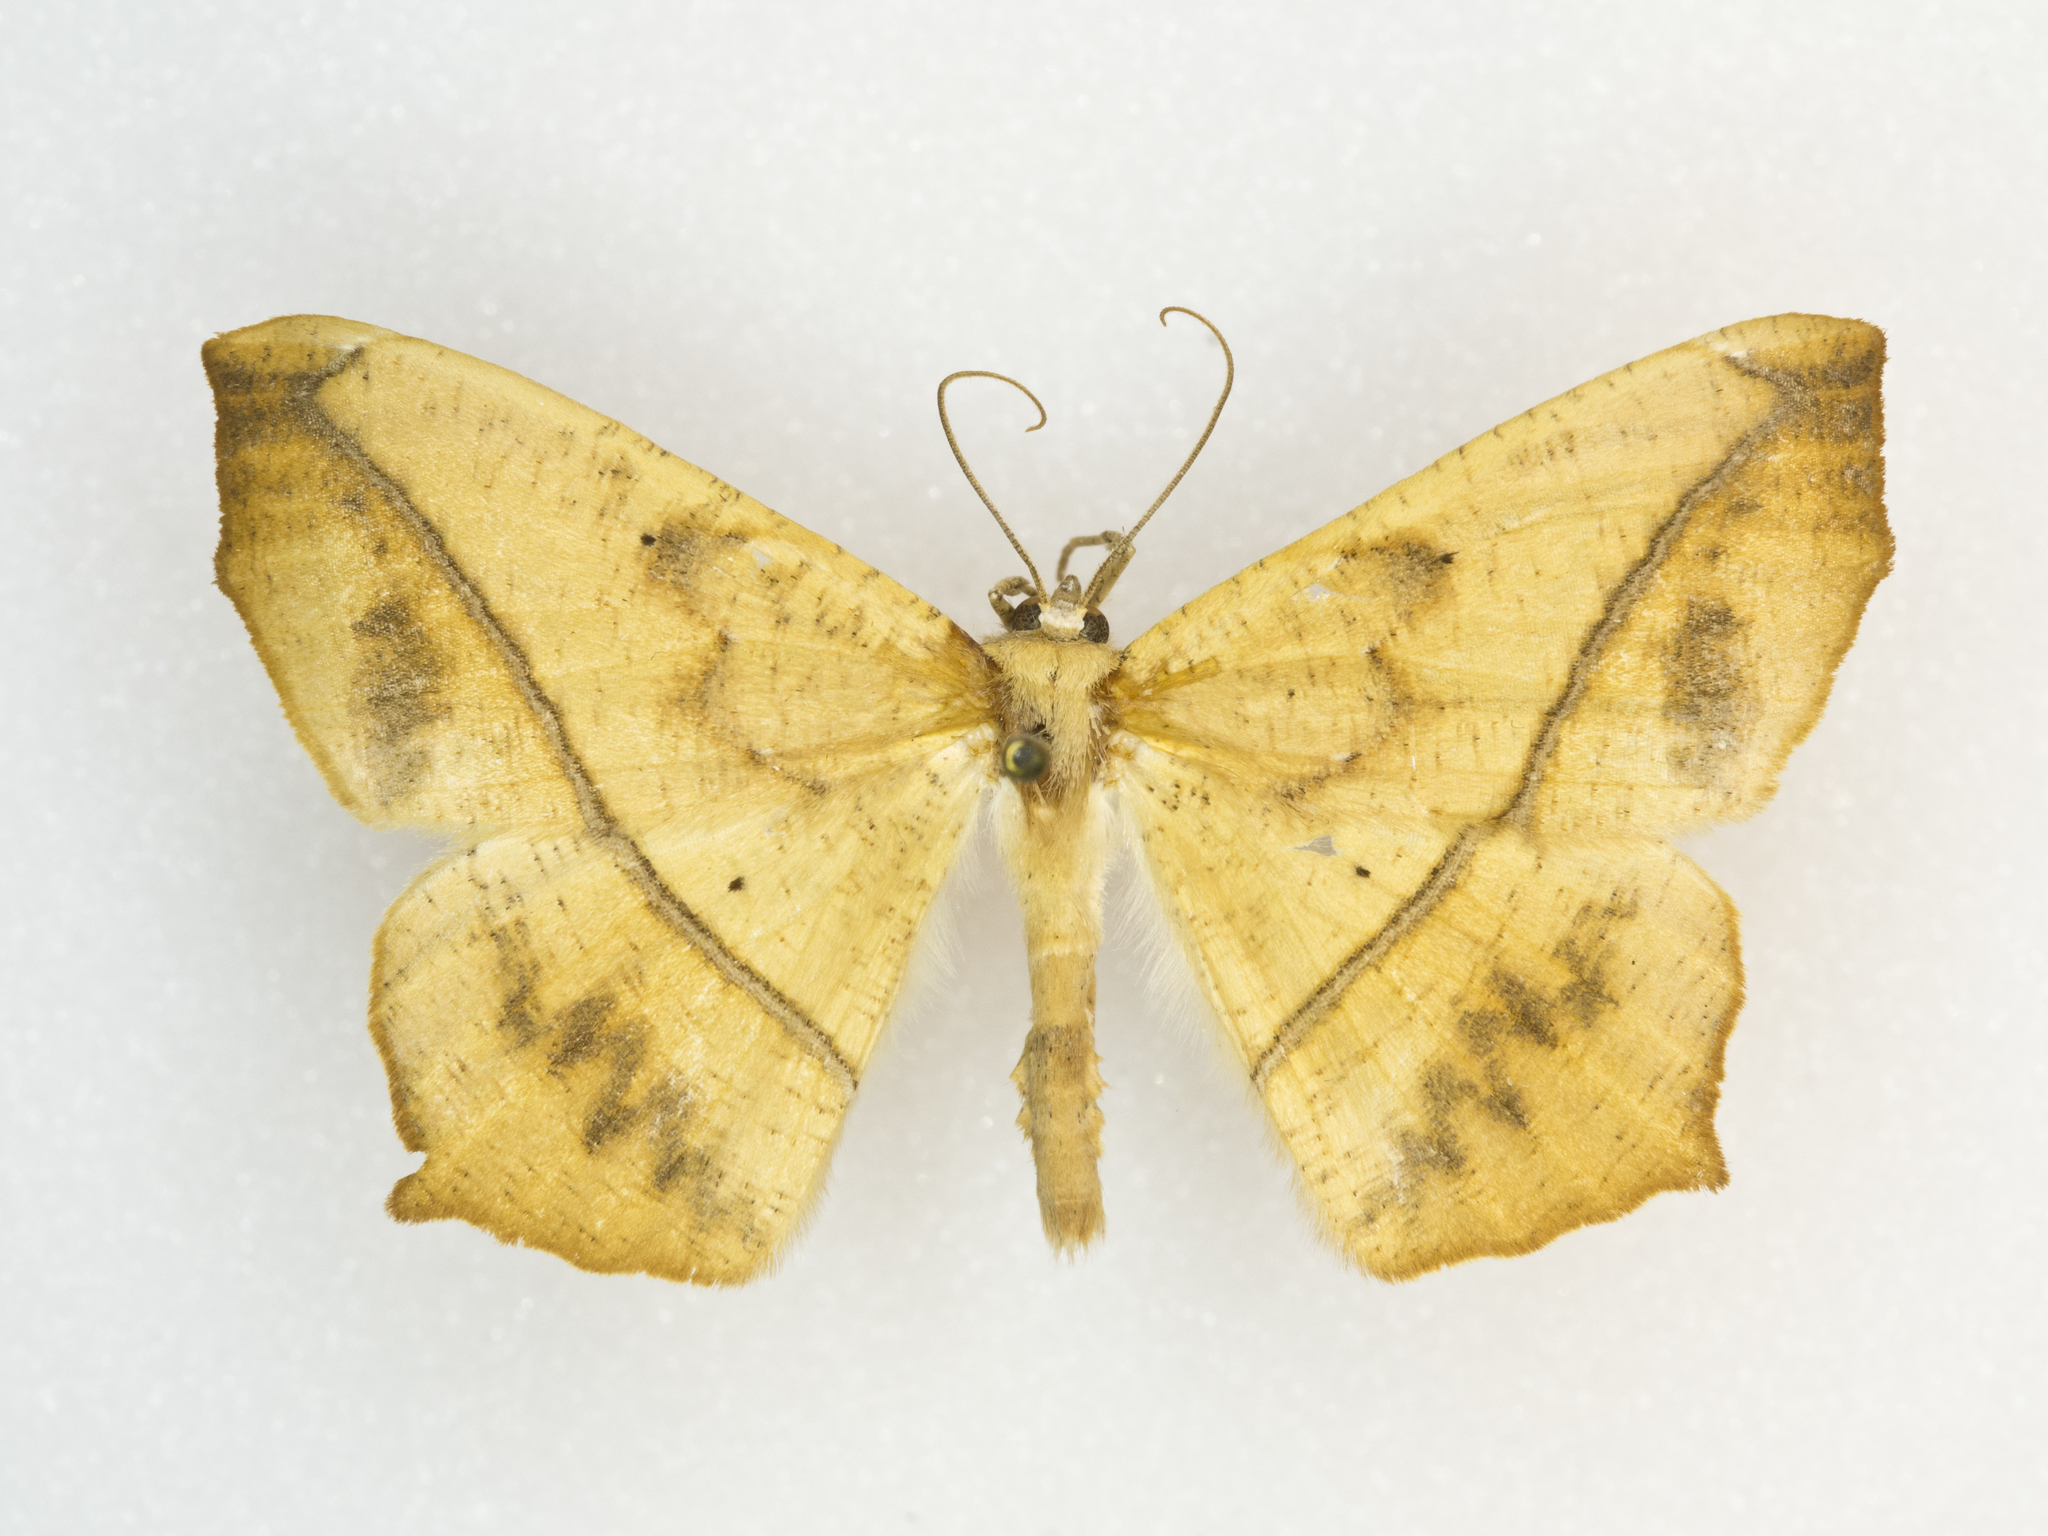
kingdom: Animalia
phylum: Arthropoda
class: Insecta
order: Lepidoptera
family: Geometridae
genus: Prochoerodes
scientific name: Prochoerodes lineola
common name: Large maple spanworm
